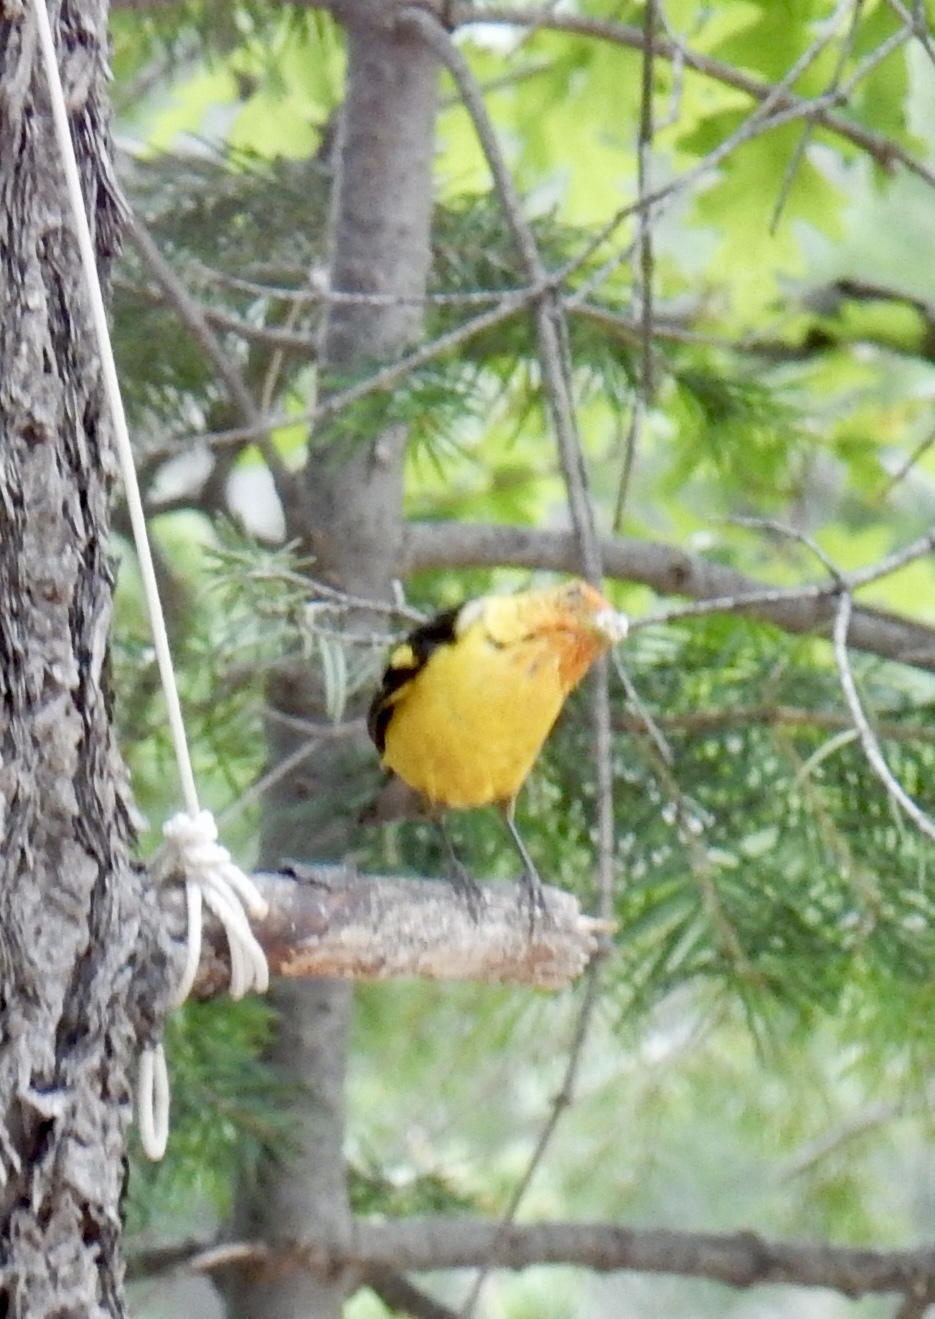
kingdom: Animalia
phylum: Chordata
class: Aves
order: Passeriformes
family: Cardinalidae
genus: Piranga
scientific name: Piranga ludoviciana
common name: Western tanager
